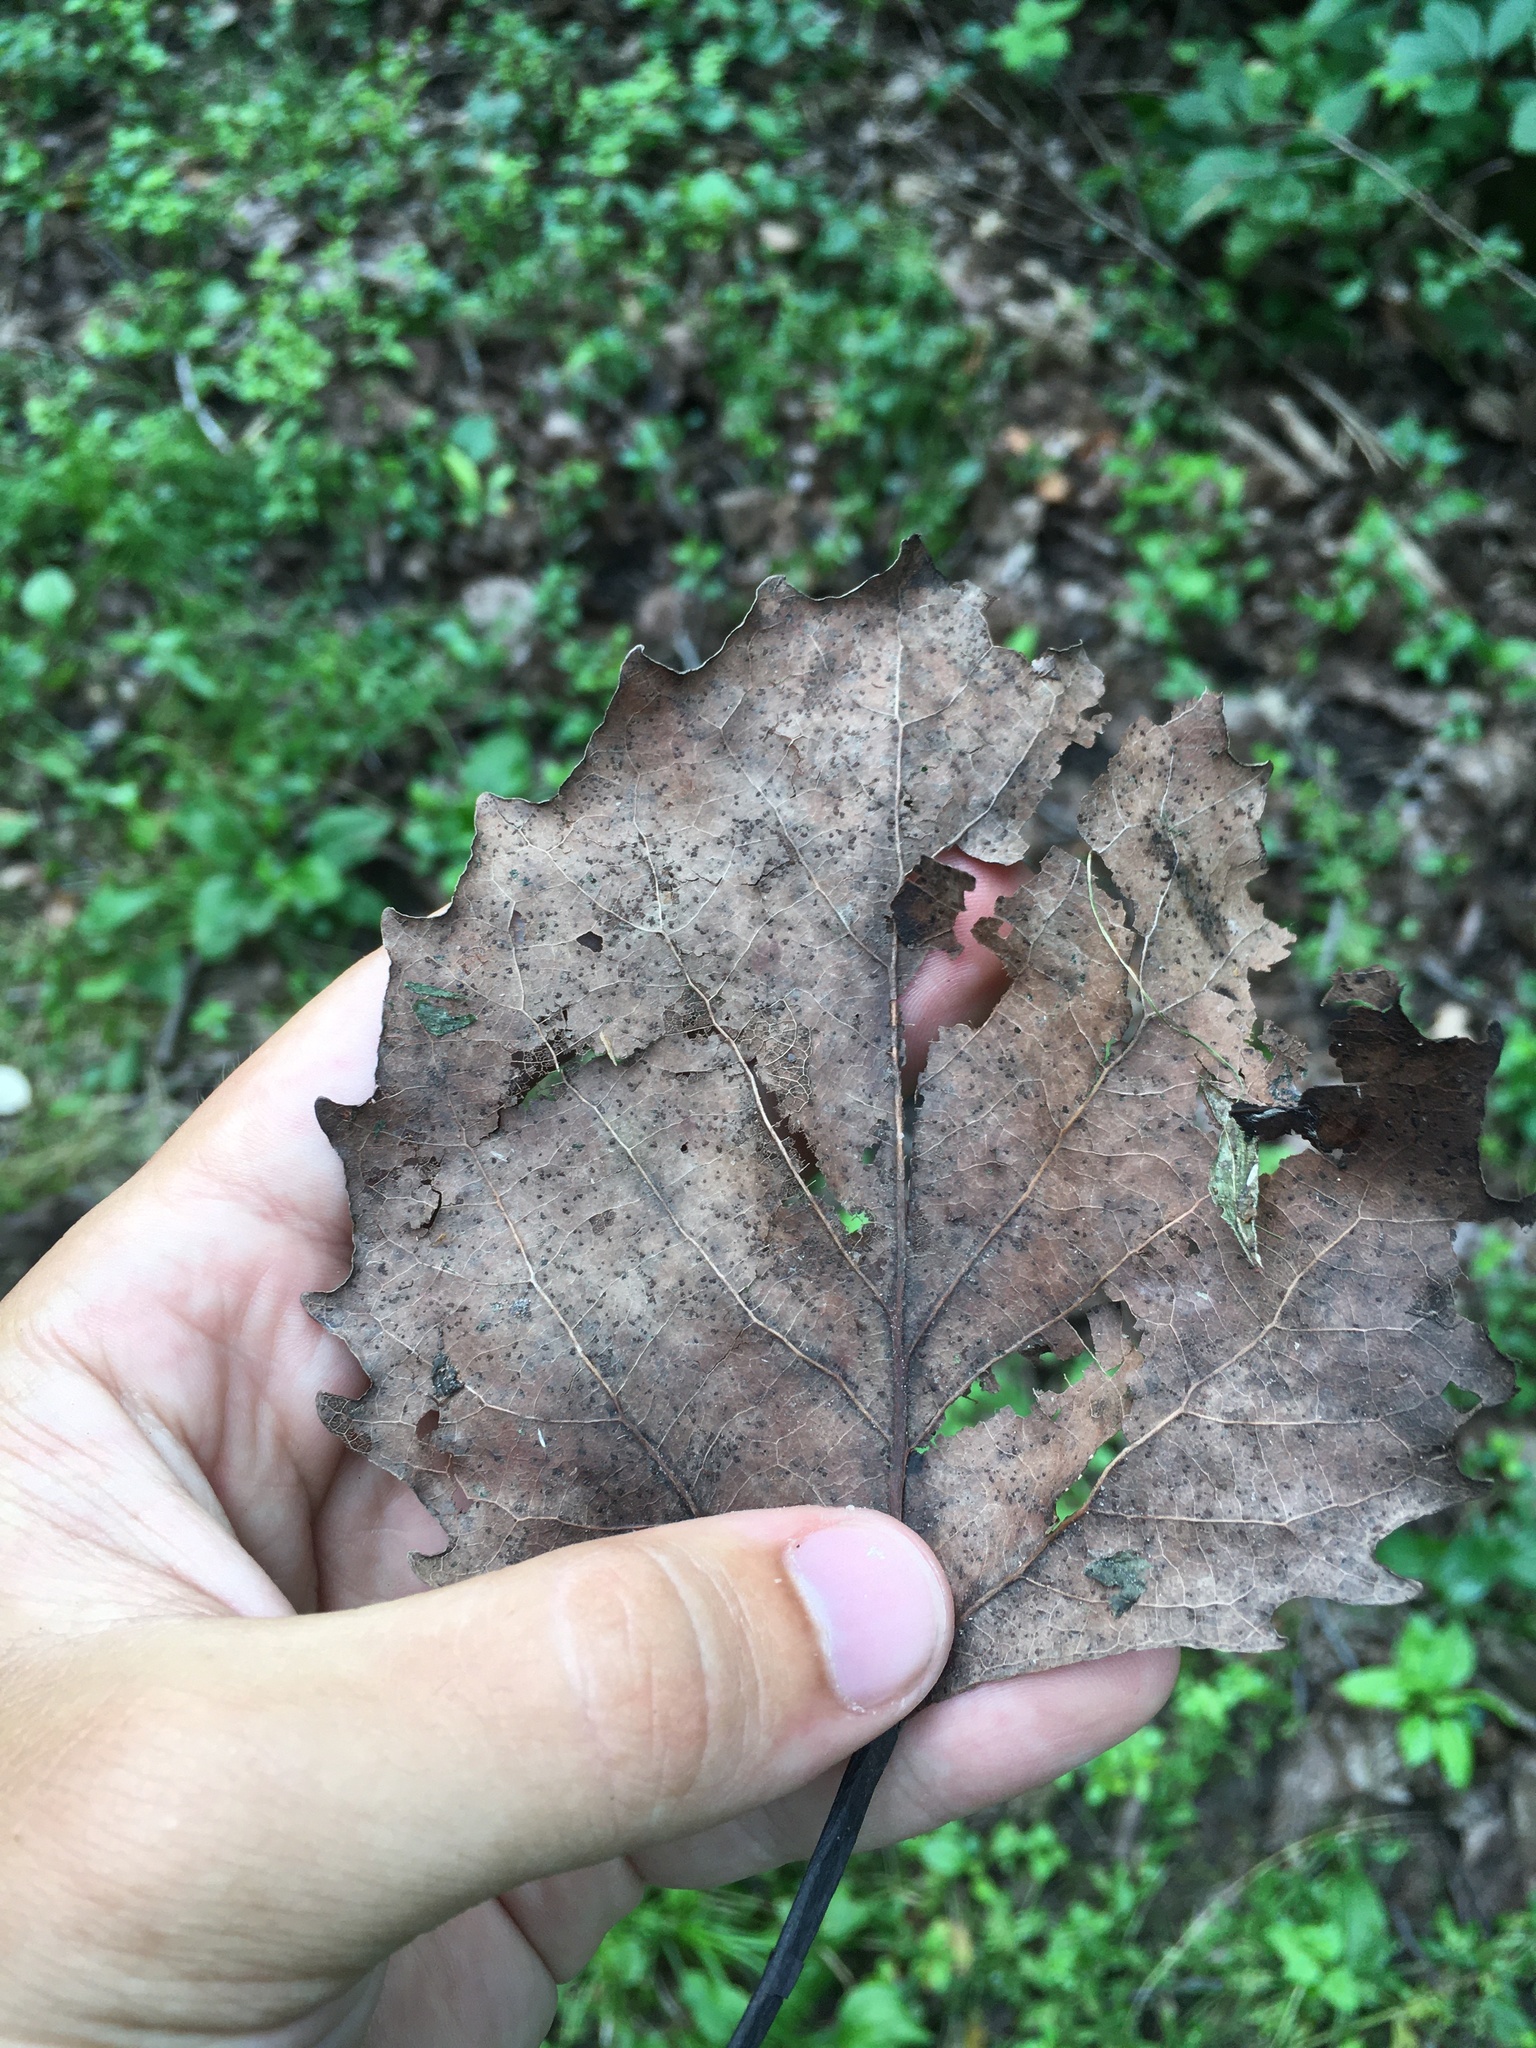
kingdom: Plantae
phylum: Tracheophyta
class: Magnoliopsida
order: Malpighiales
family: Salicaceae
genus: Populus
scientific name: Populus grandidentata
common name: Bigtooth aspen
